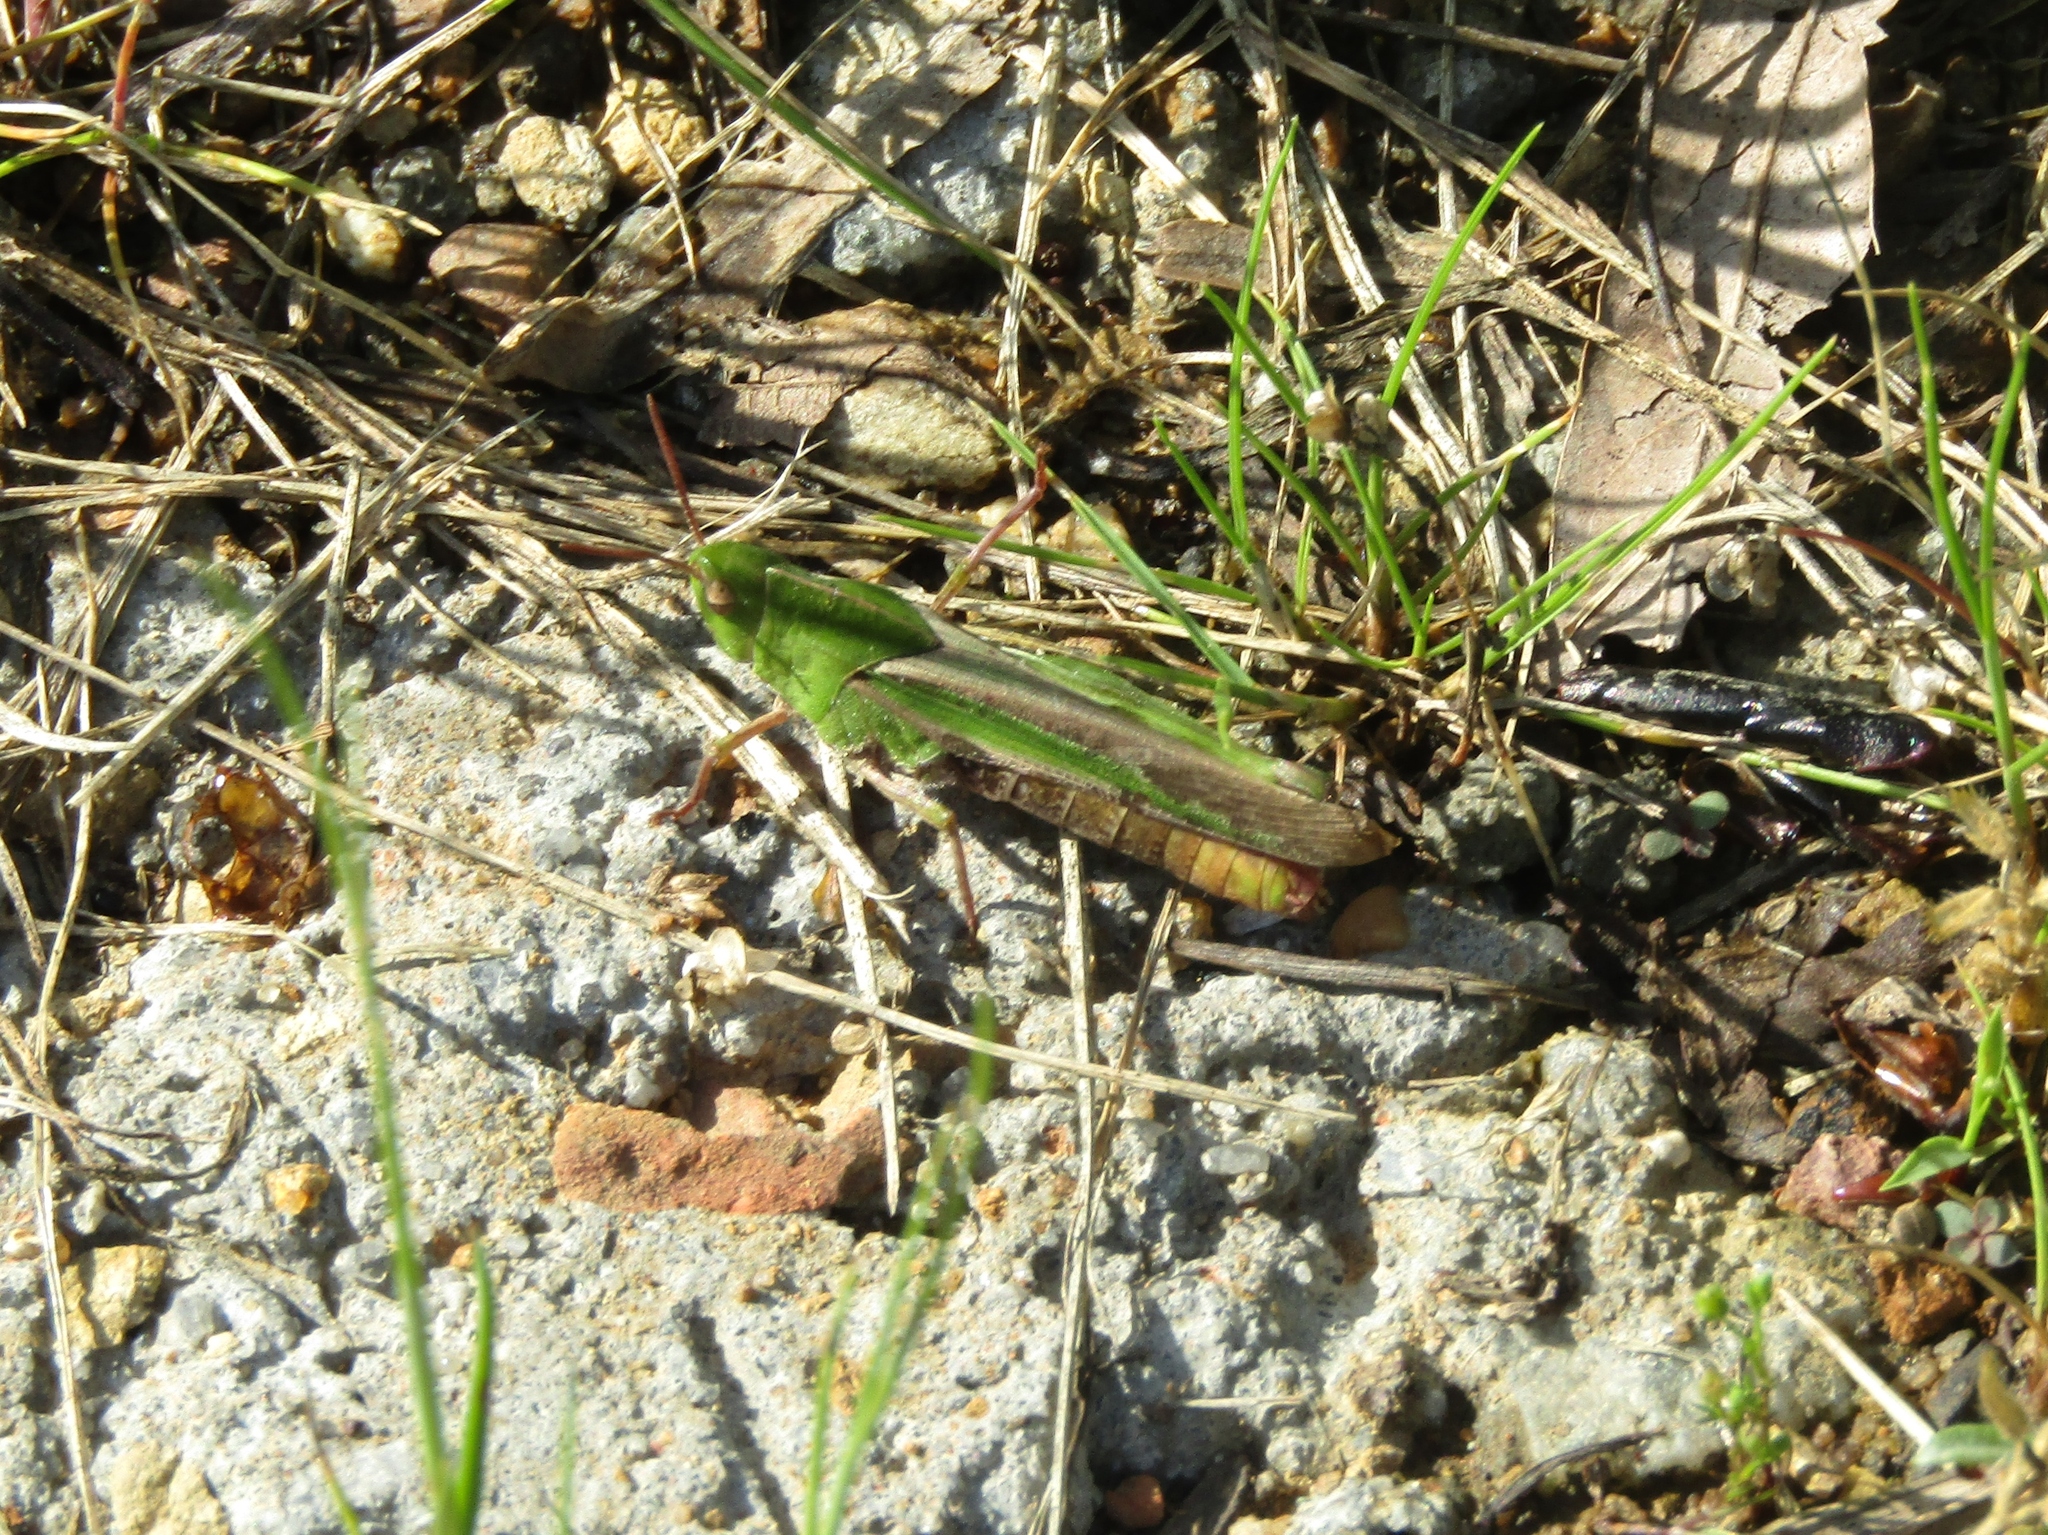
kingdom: Animalia
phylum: Arthropoda
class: Insecta
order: Orthoptera
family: Acrididae
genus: Chortophaga
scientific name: Chortophaga viridifasciata
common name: Green-striped grasshopper
